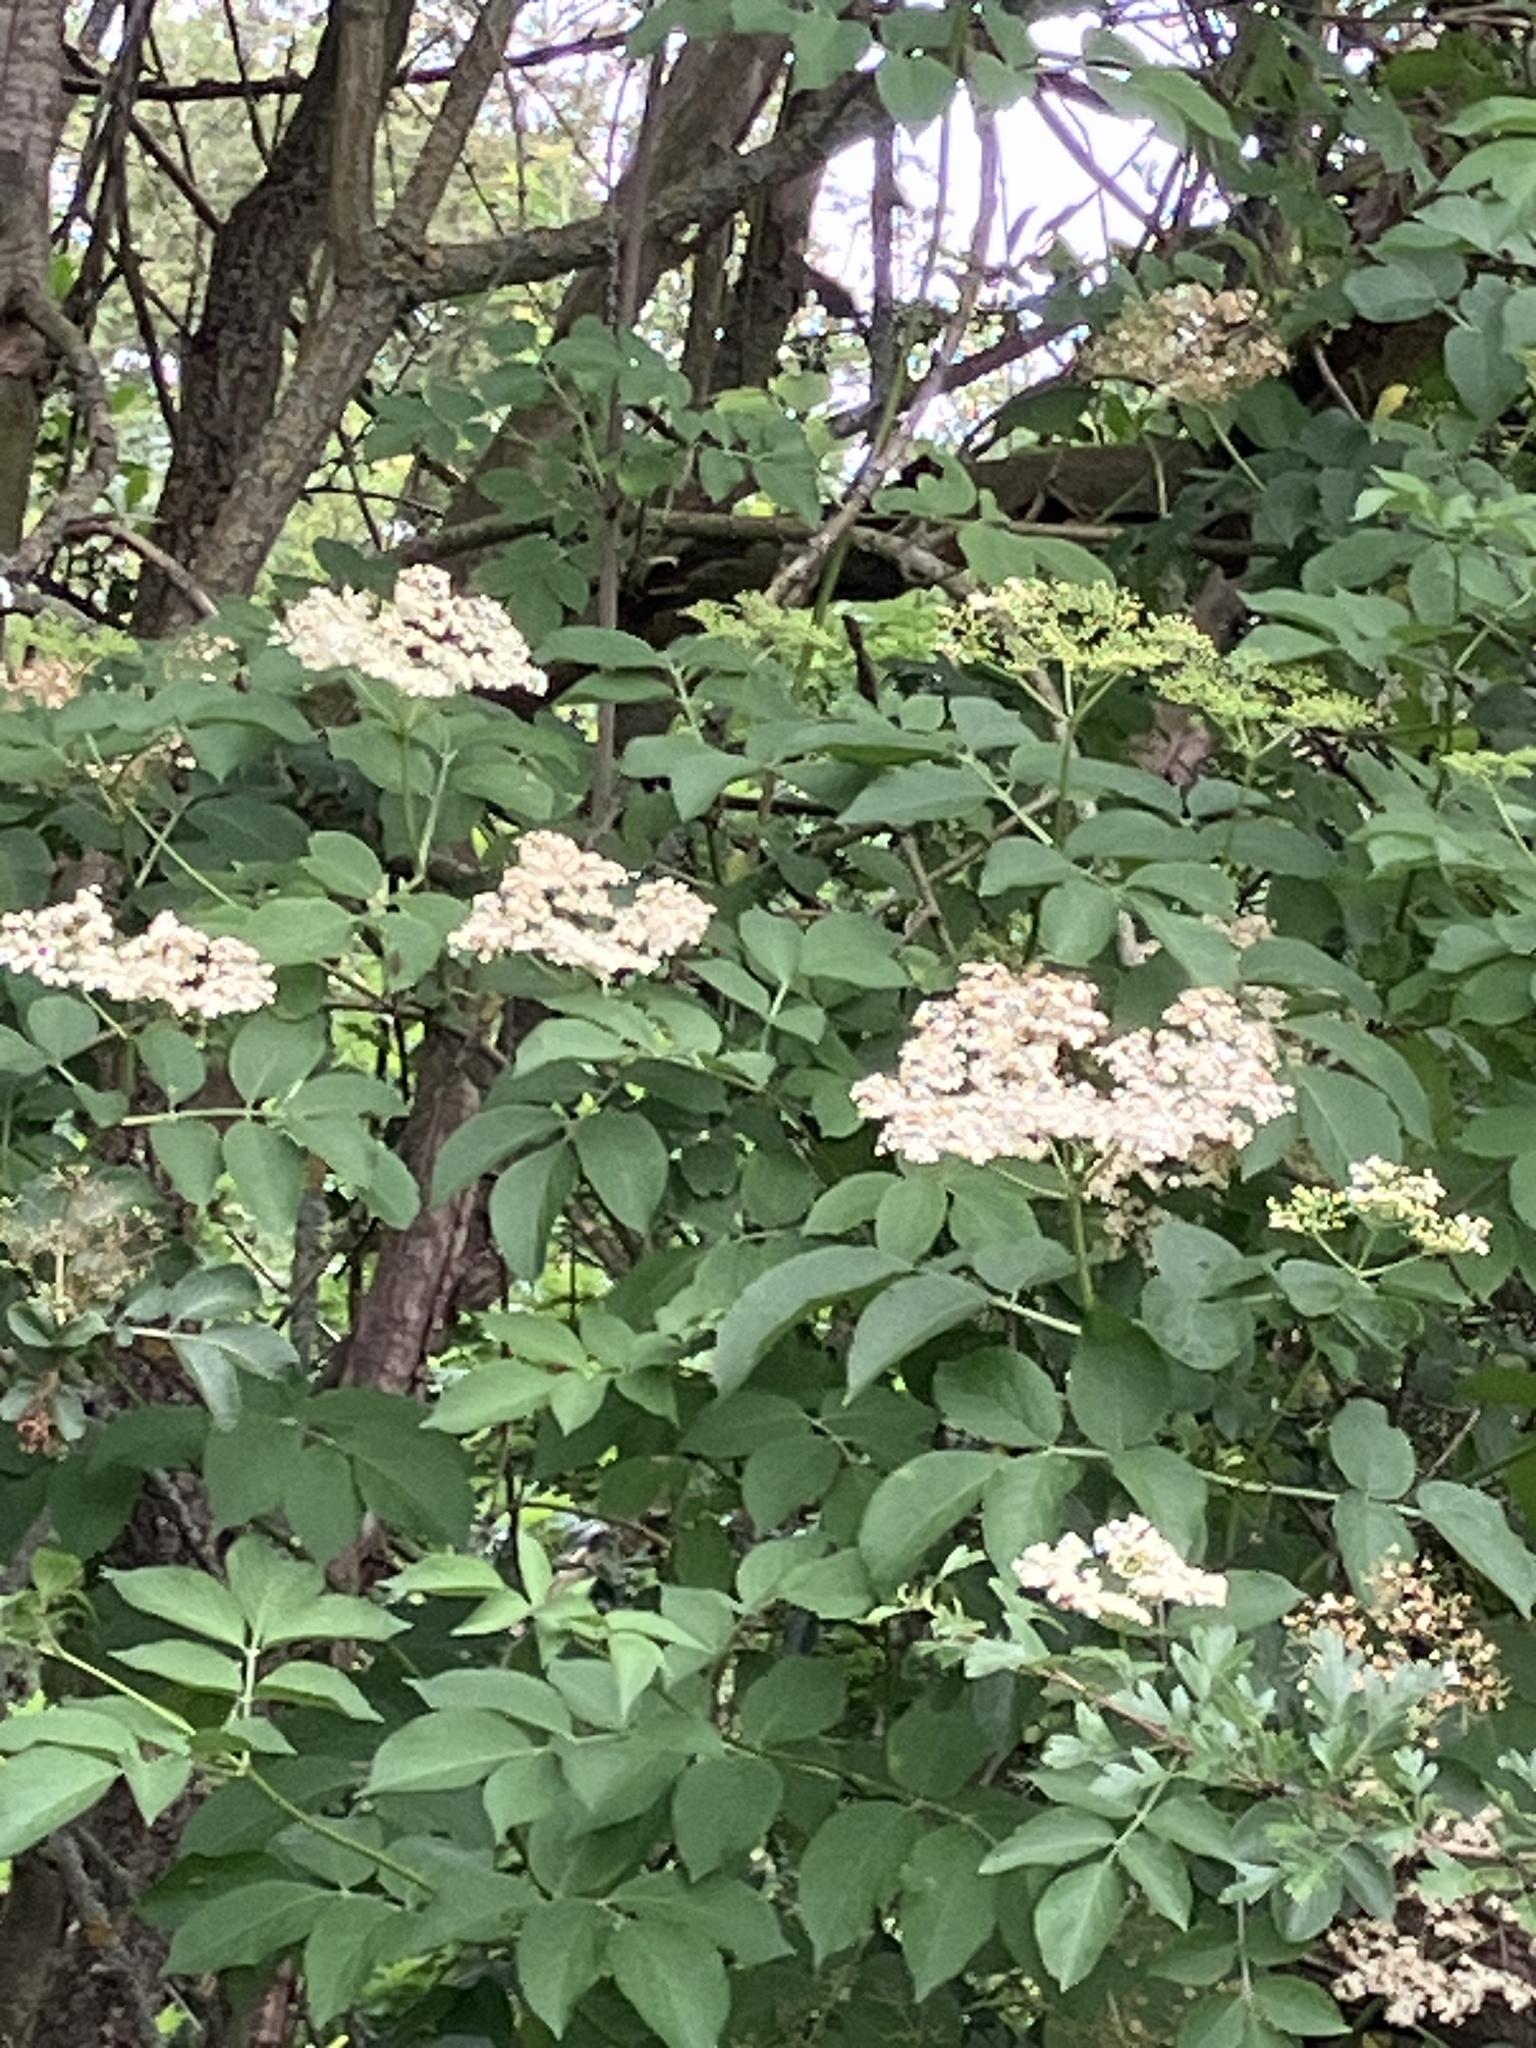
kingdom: Plantae
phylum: Tracheophyta
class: Magnoliopsida
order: Dipsacales
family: Viburnaceae
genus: Sambucus
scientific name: Sambucus nigra
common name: Elder
